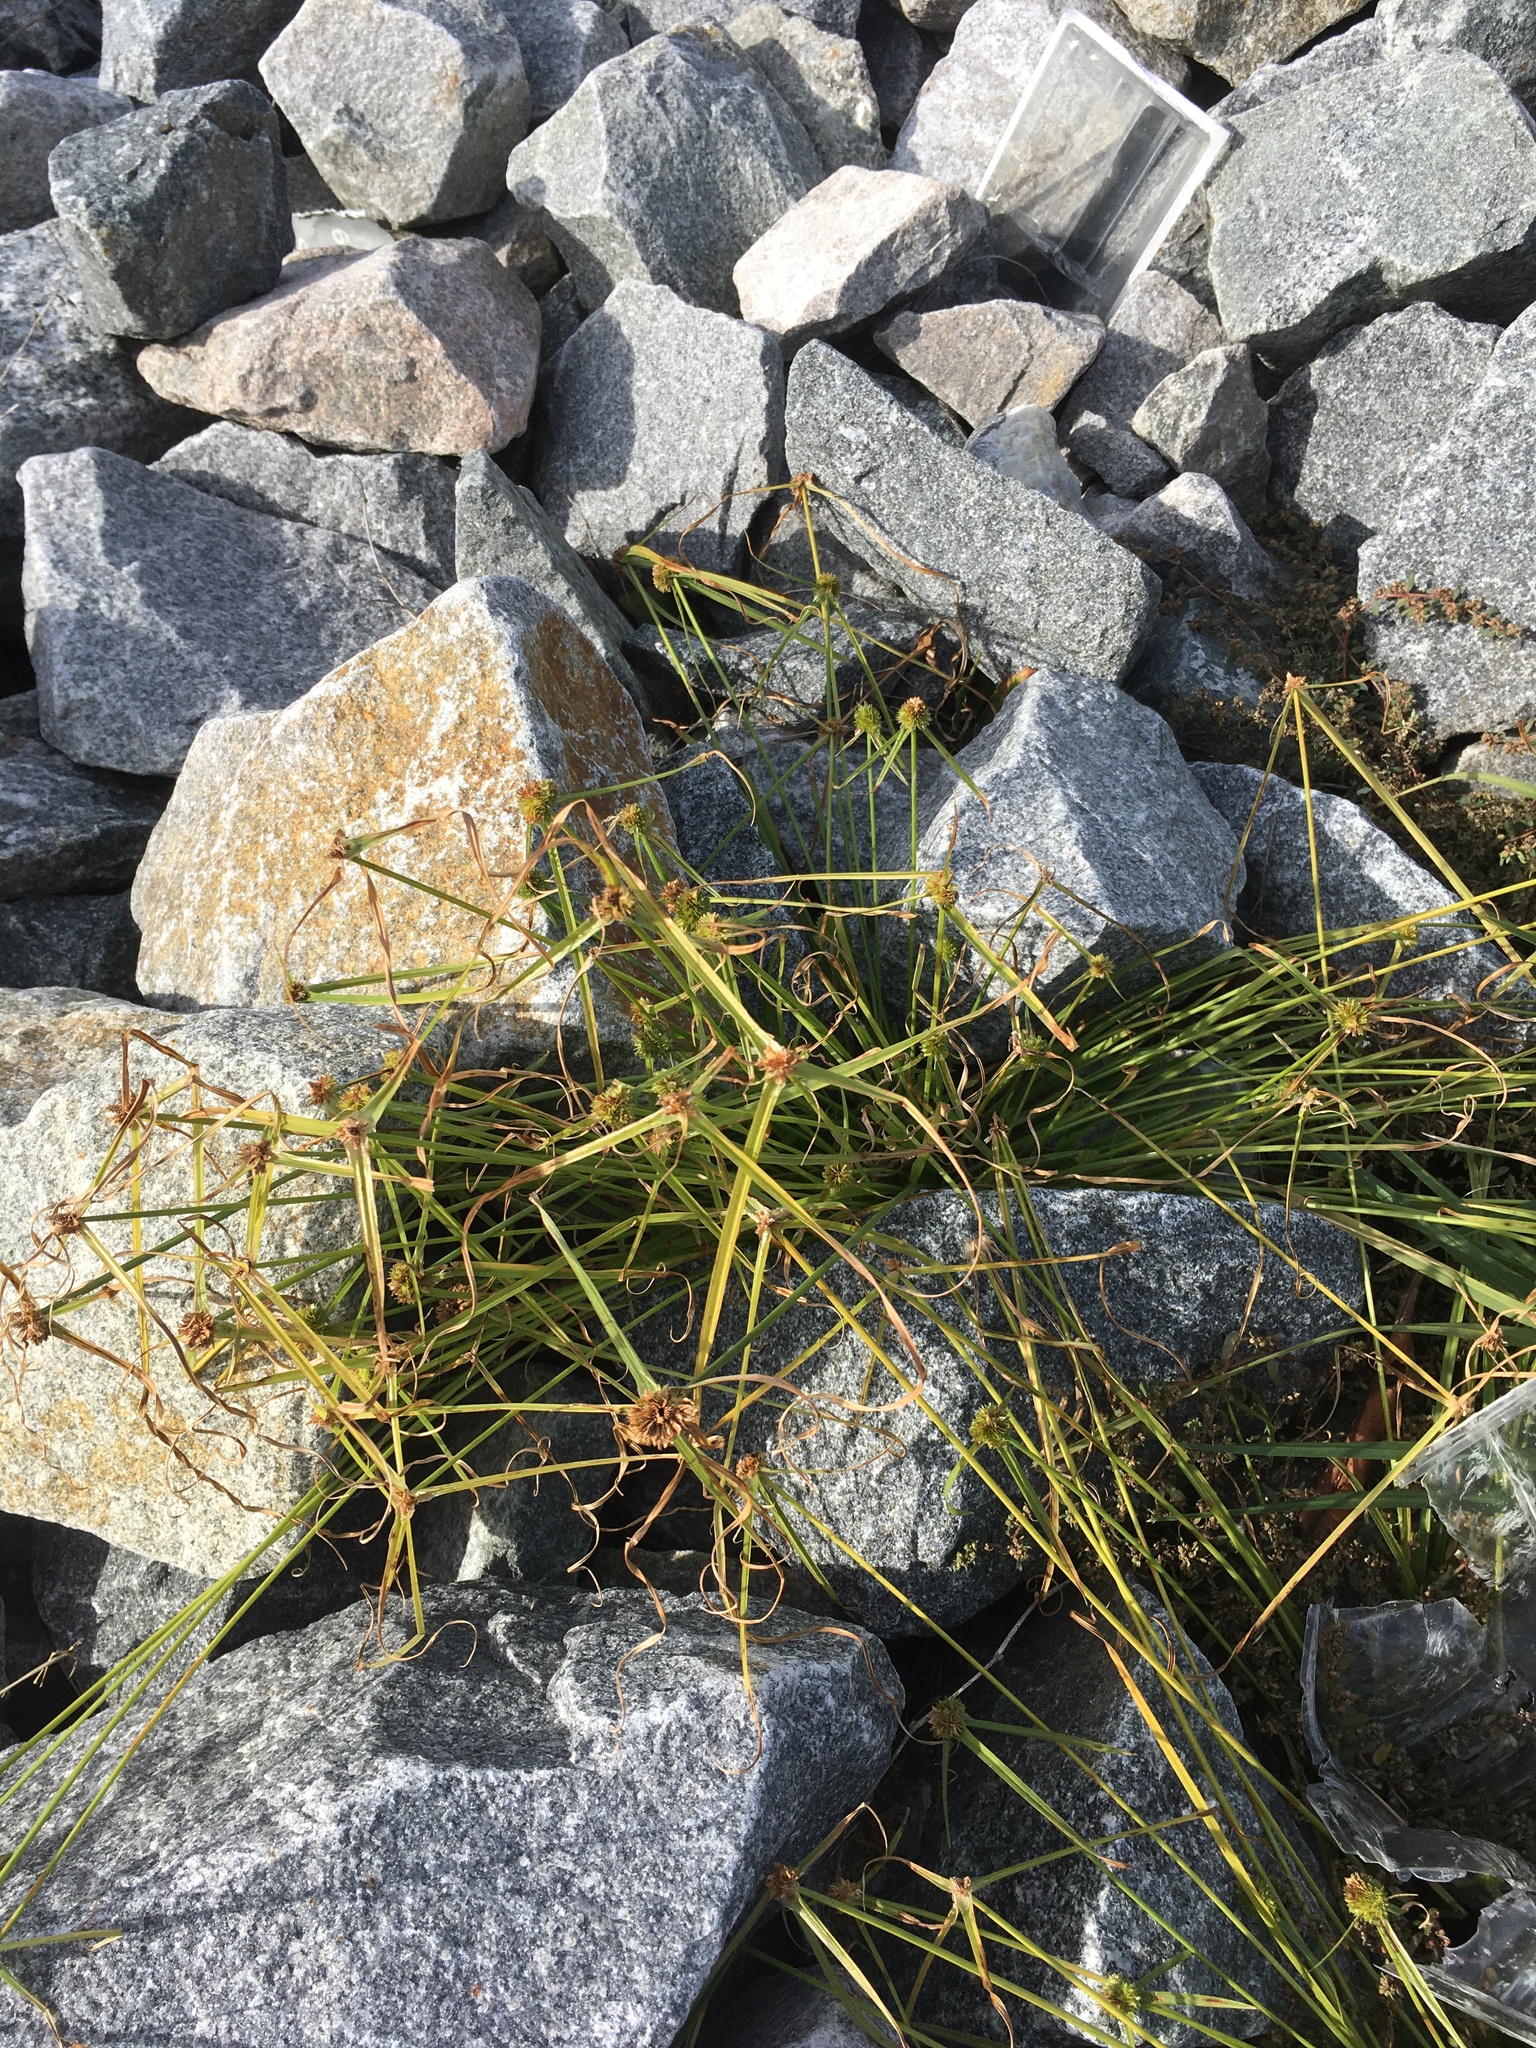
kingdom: Plantae
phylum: Tracheophyta
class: Liliopsida
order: Poales
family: Cyperaceae
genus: Cyperus
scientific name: Cyperus metzii
